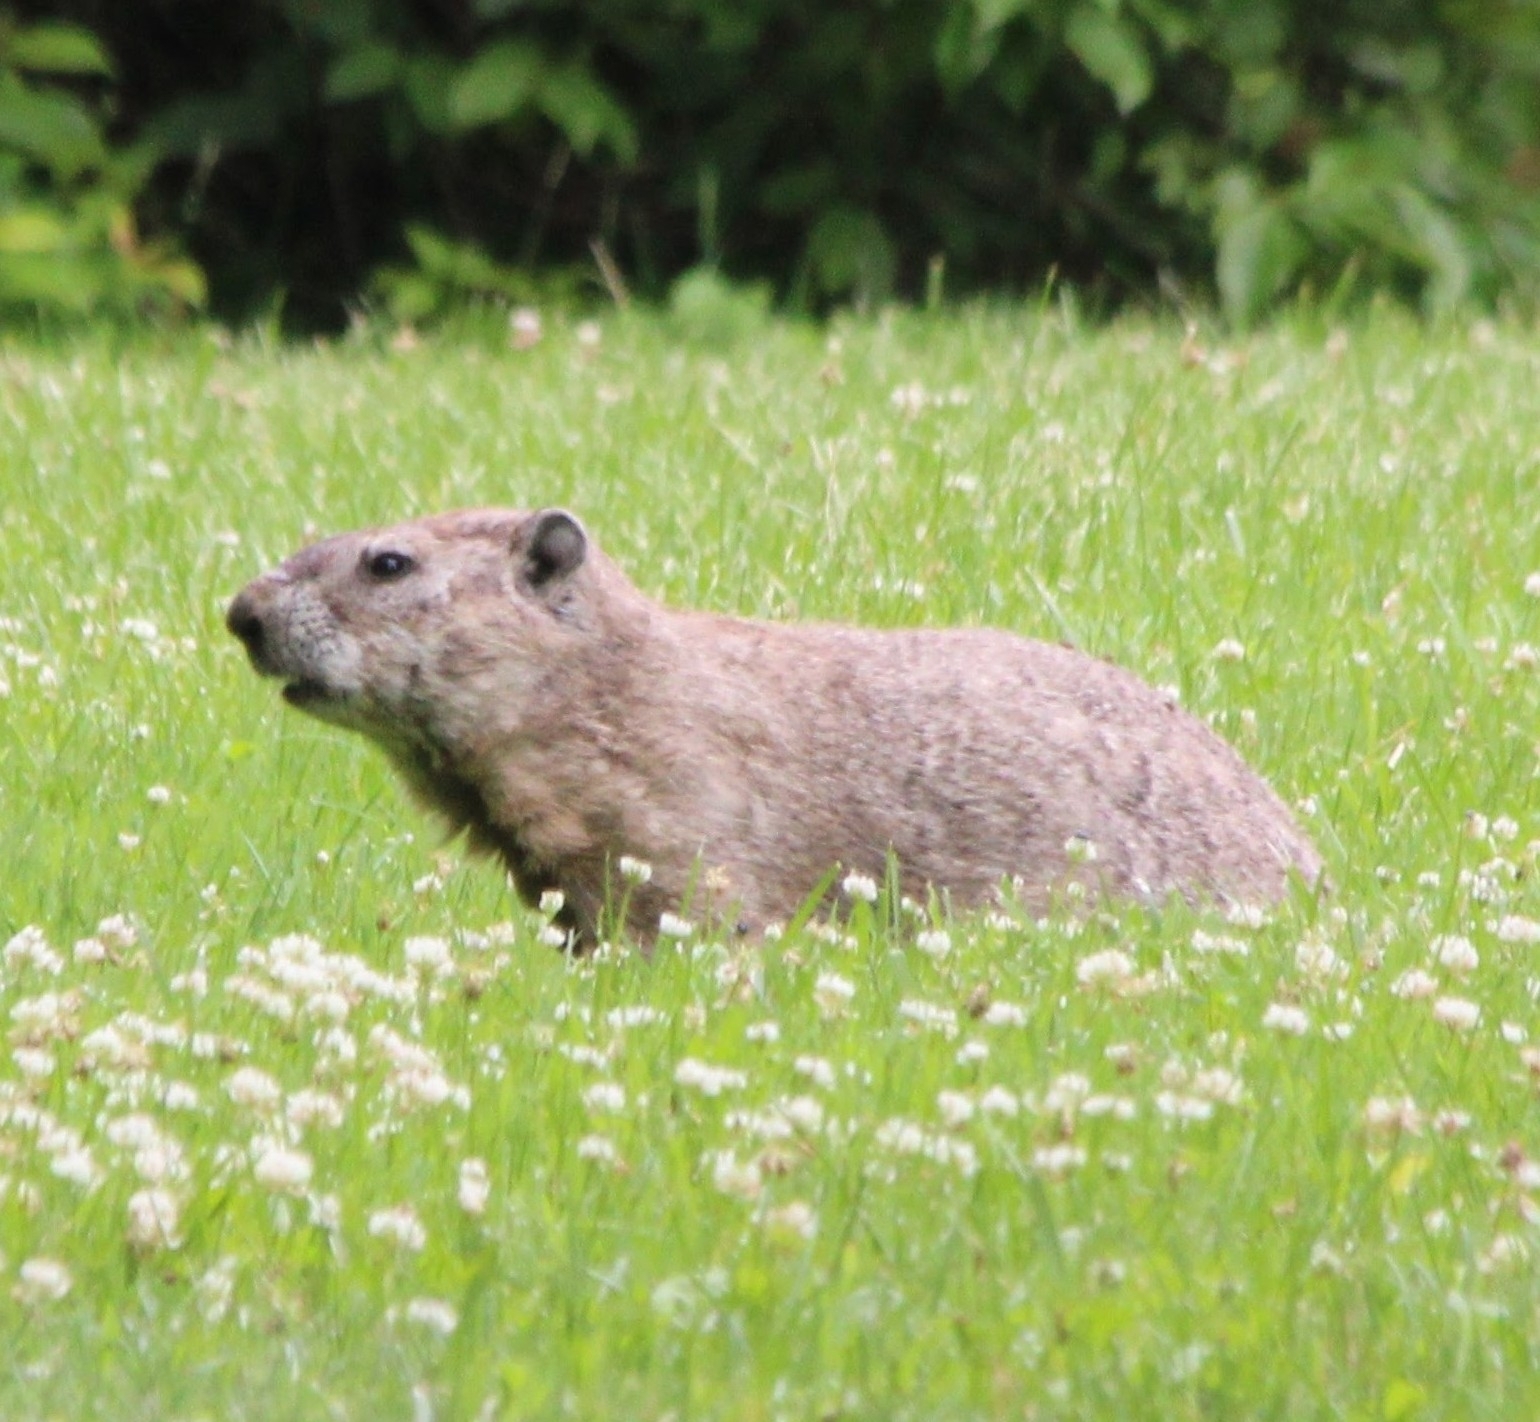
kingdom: Animalia
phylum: Chordata
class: Mammalia
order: Rodentia
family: Sciuridae
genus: Marmota
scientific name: Marmota monax
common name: Groundhog
